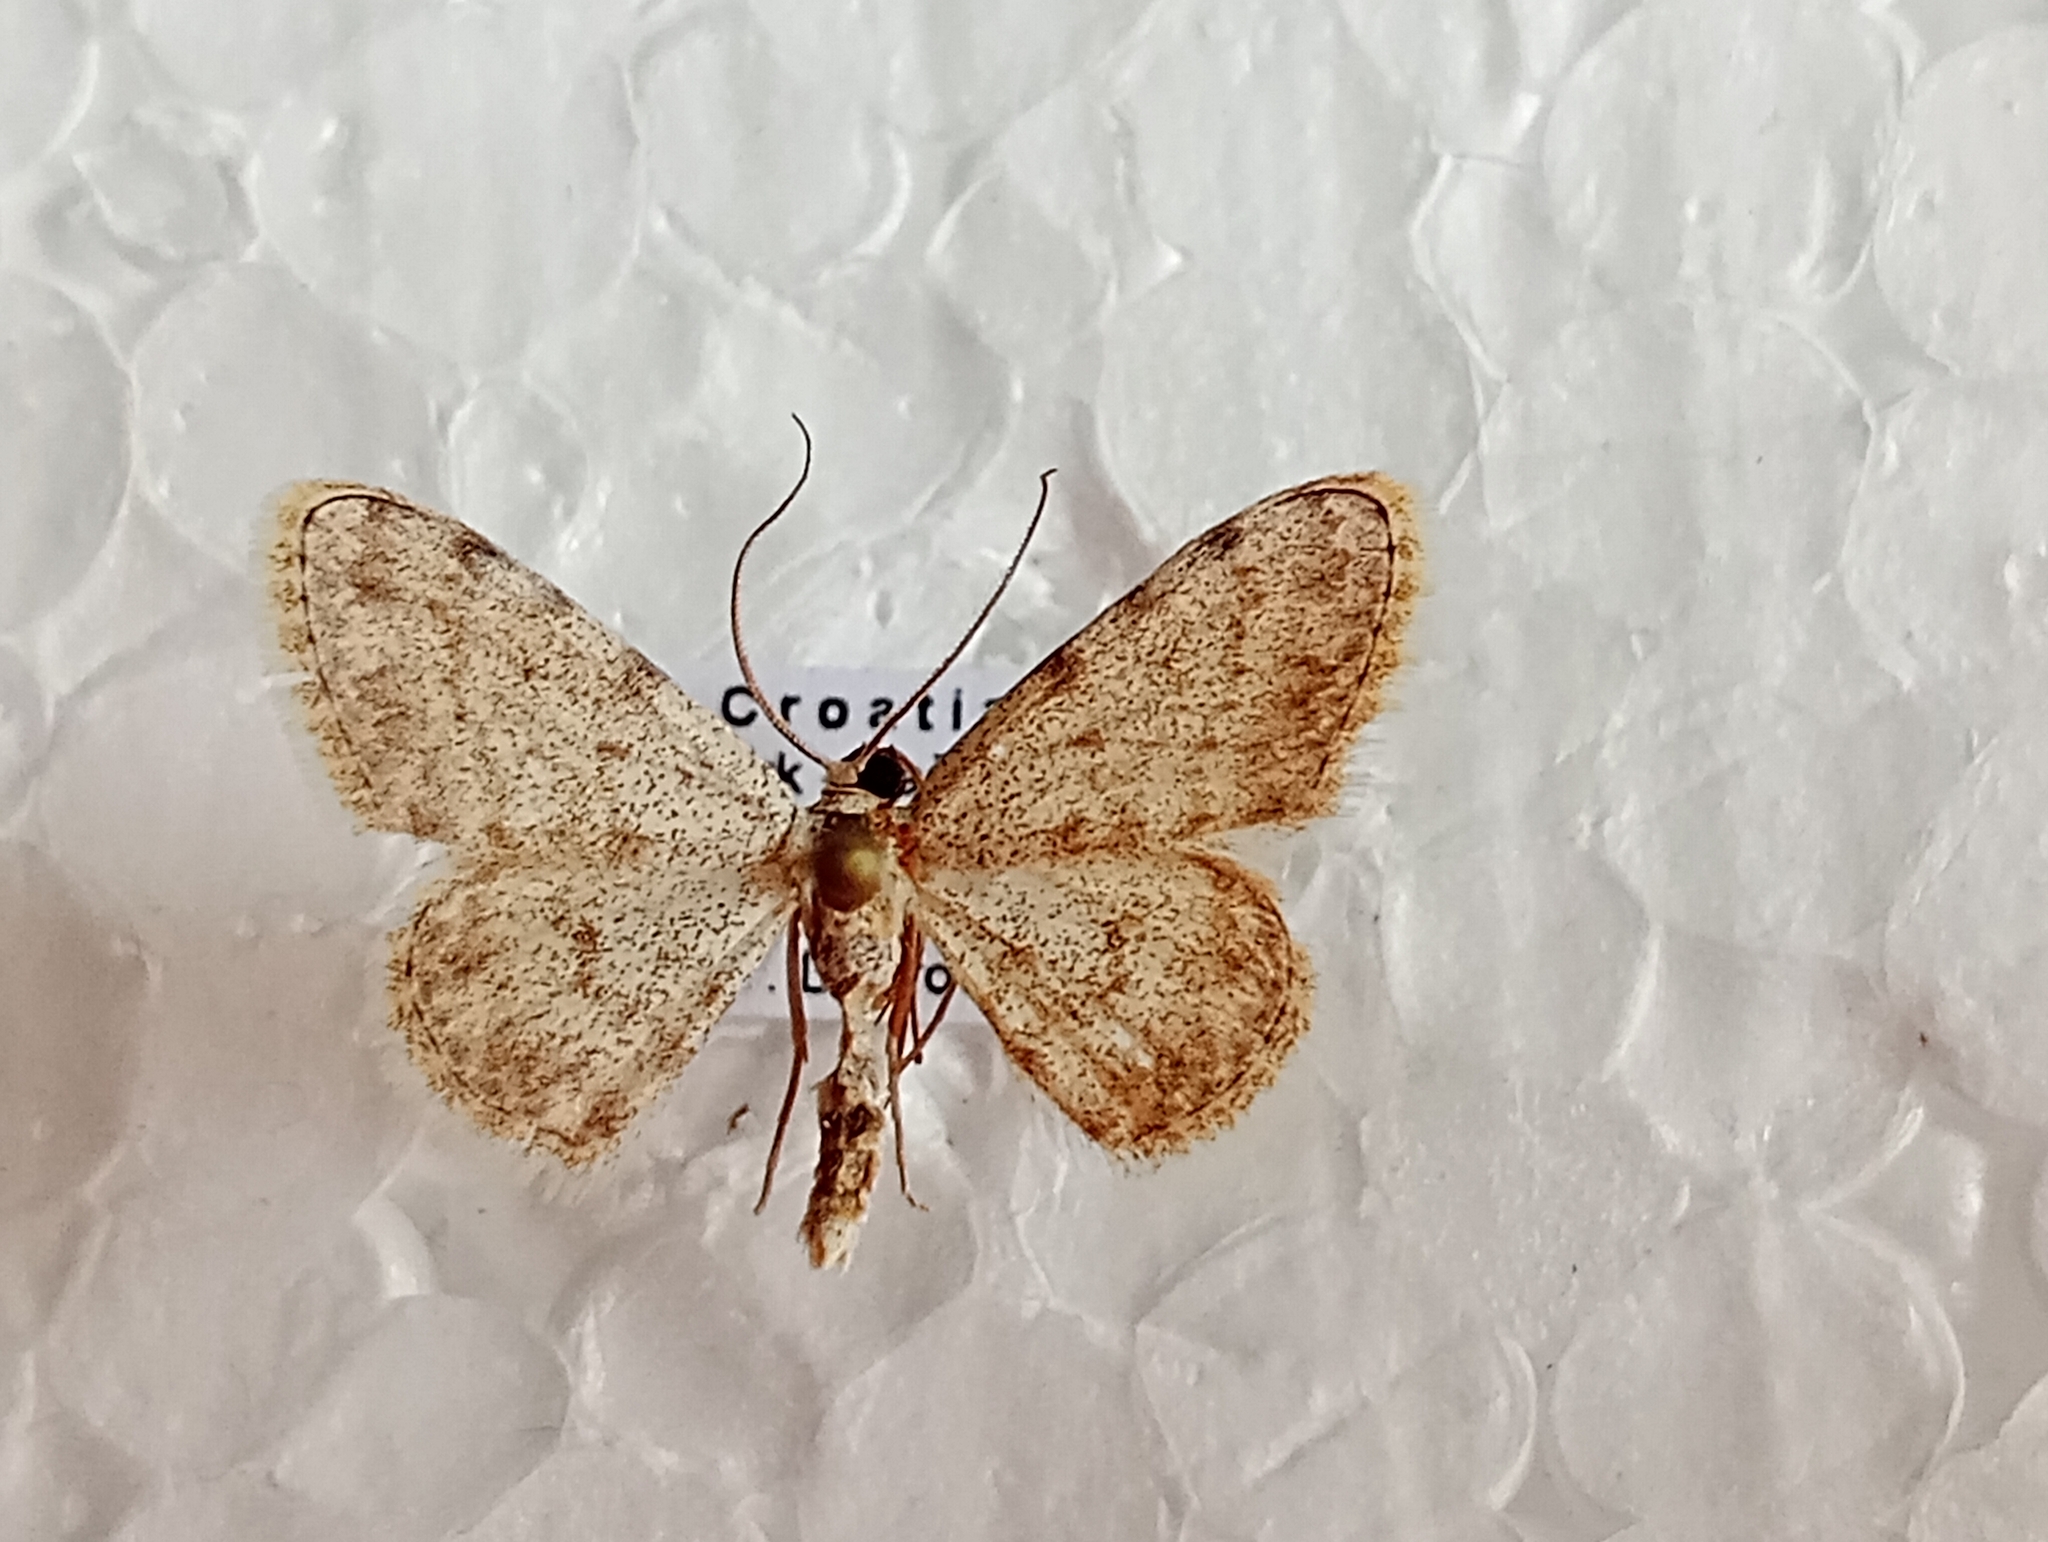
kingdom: Animalia
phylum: Arthropoda
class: Insecta
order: Lepidoptera
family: Geometridae
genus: Glossotrophia
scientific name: Glossotrophia confinaria
